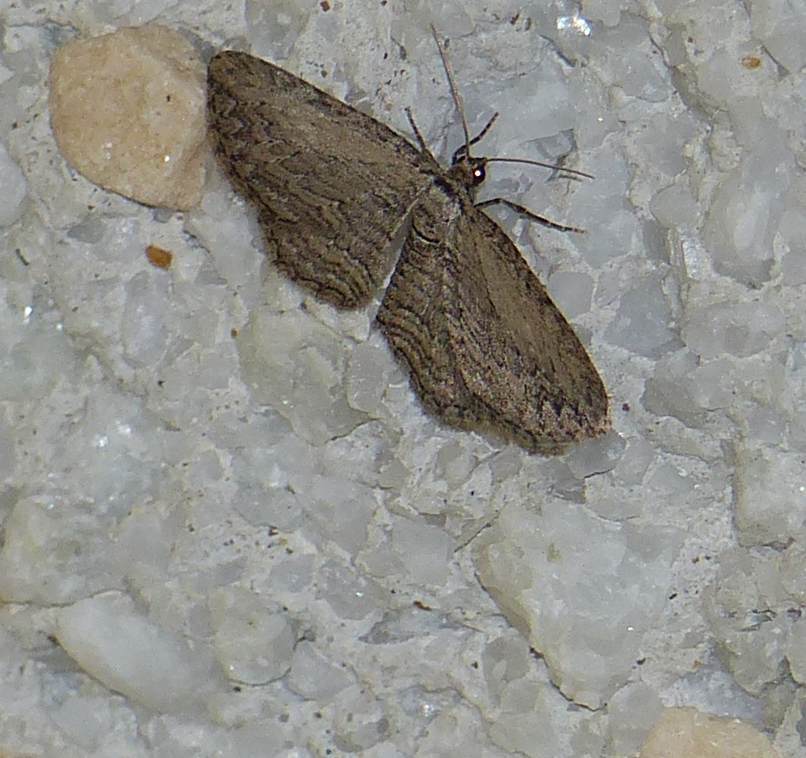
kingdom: Animalia
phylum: Arthropoda
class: Insecta
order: Lepidoptera
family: Geometridae
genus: Horisme
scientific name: Horisme intestinata
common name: Brown bark carpet
